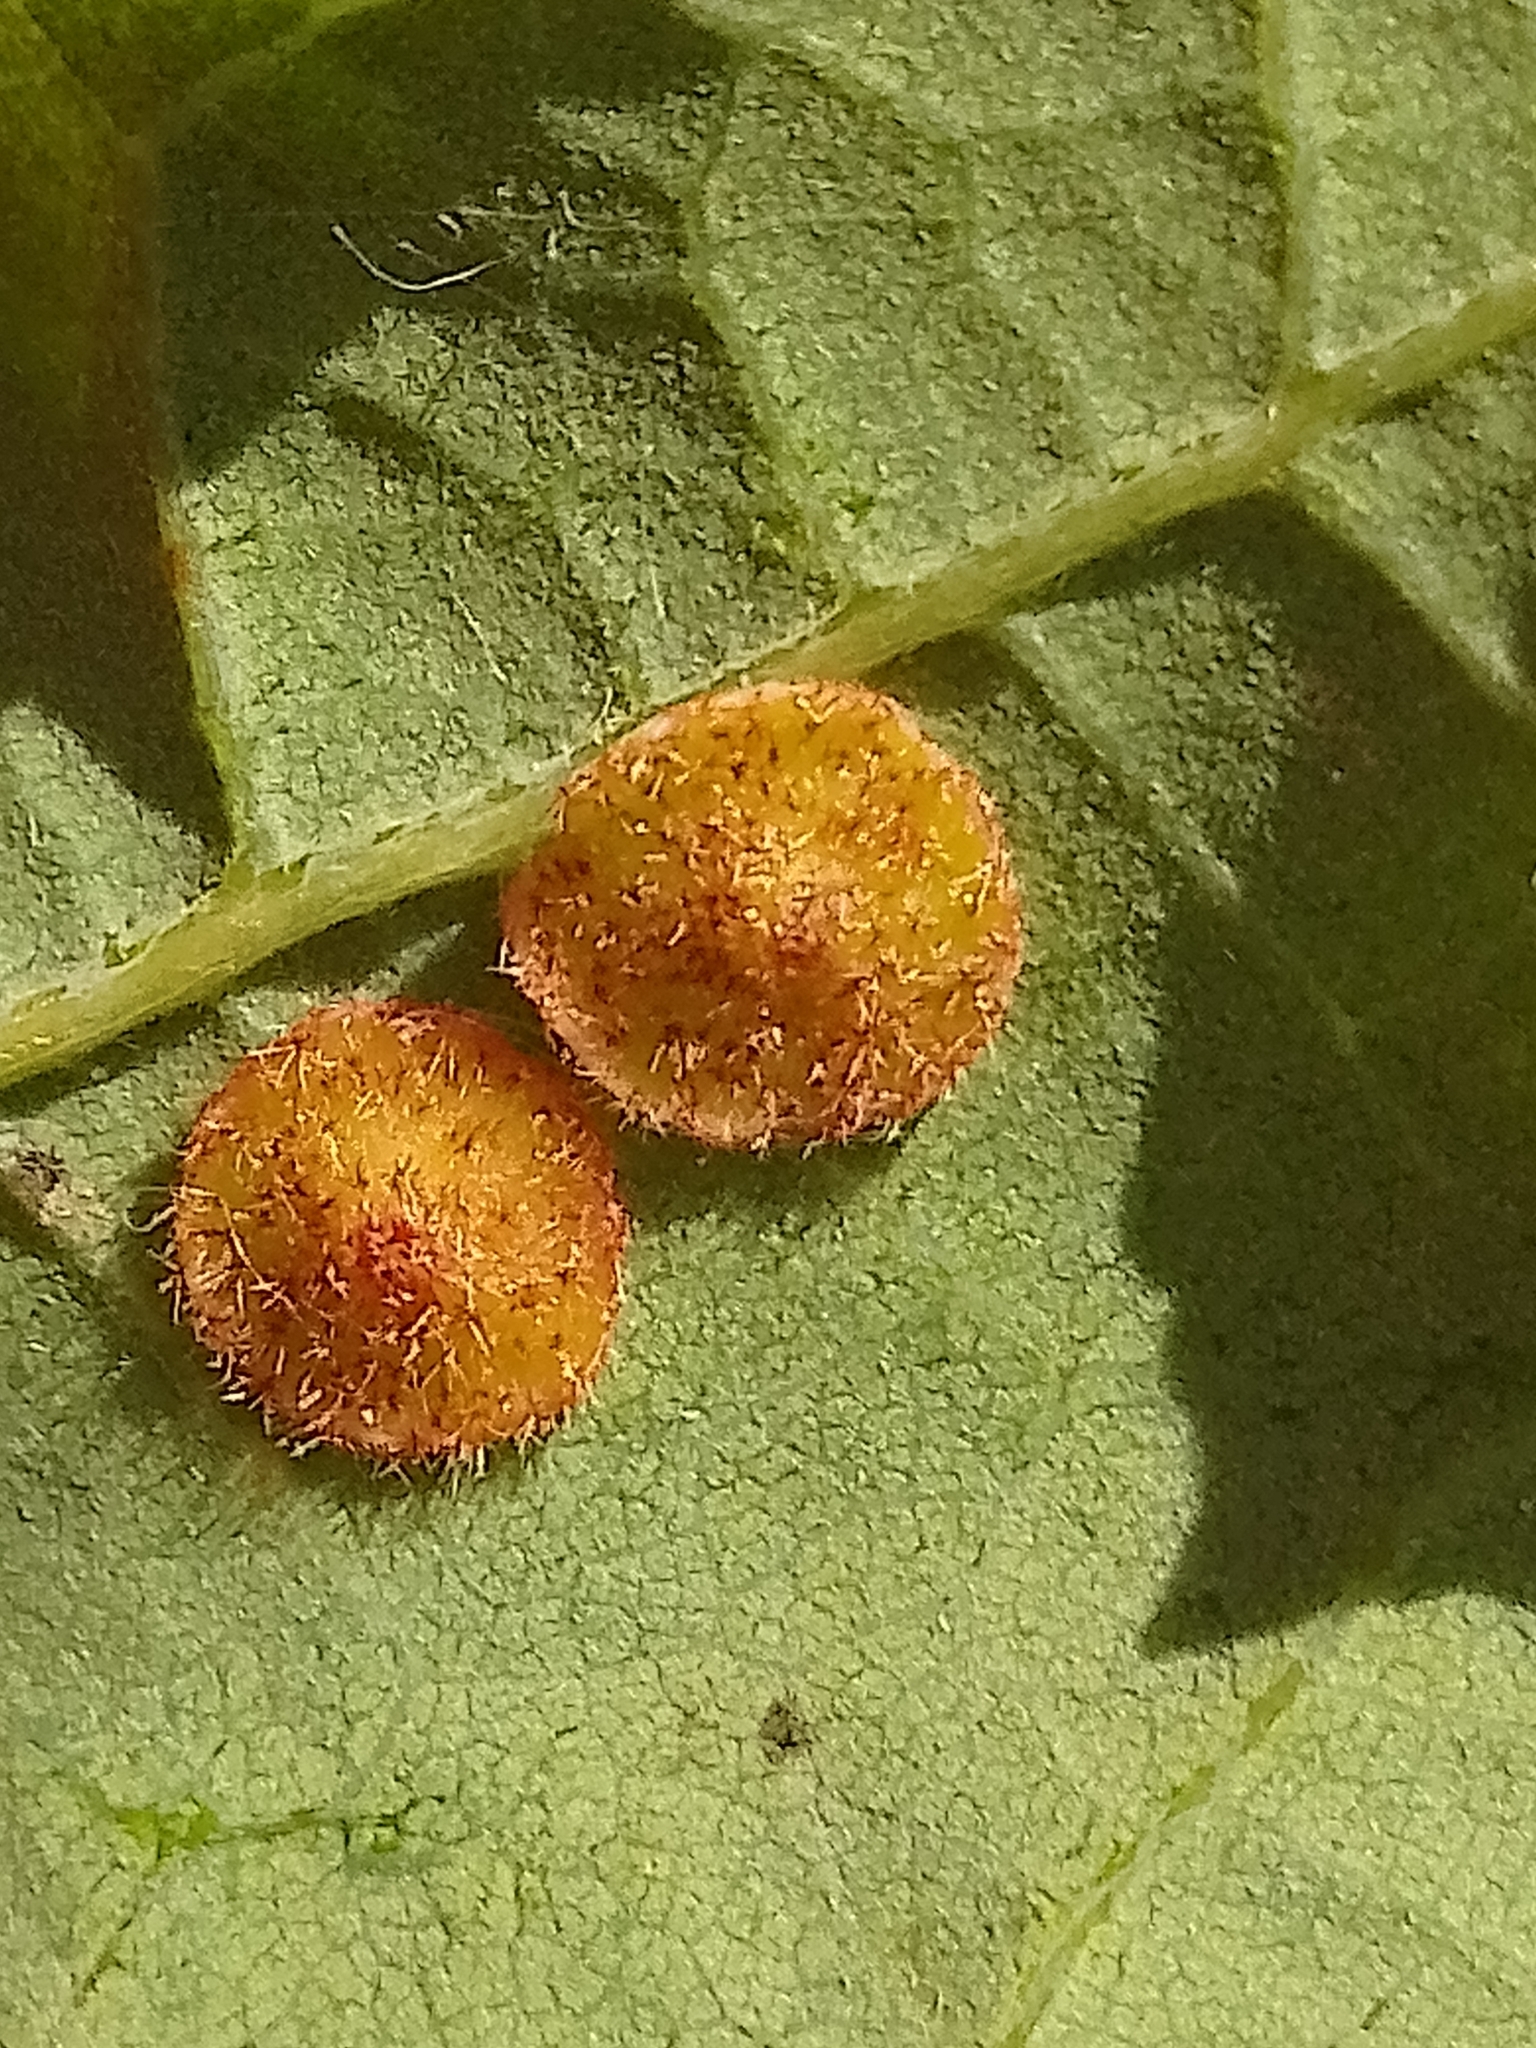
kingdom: Animalia
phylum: Arthropoda
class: Insecta
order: Hymenoptera
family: Cynipidae
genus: Neuroterus
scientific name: Neuroterus quercusbaccarum
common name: Common spangle gall
